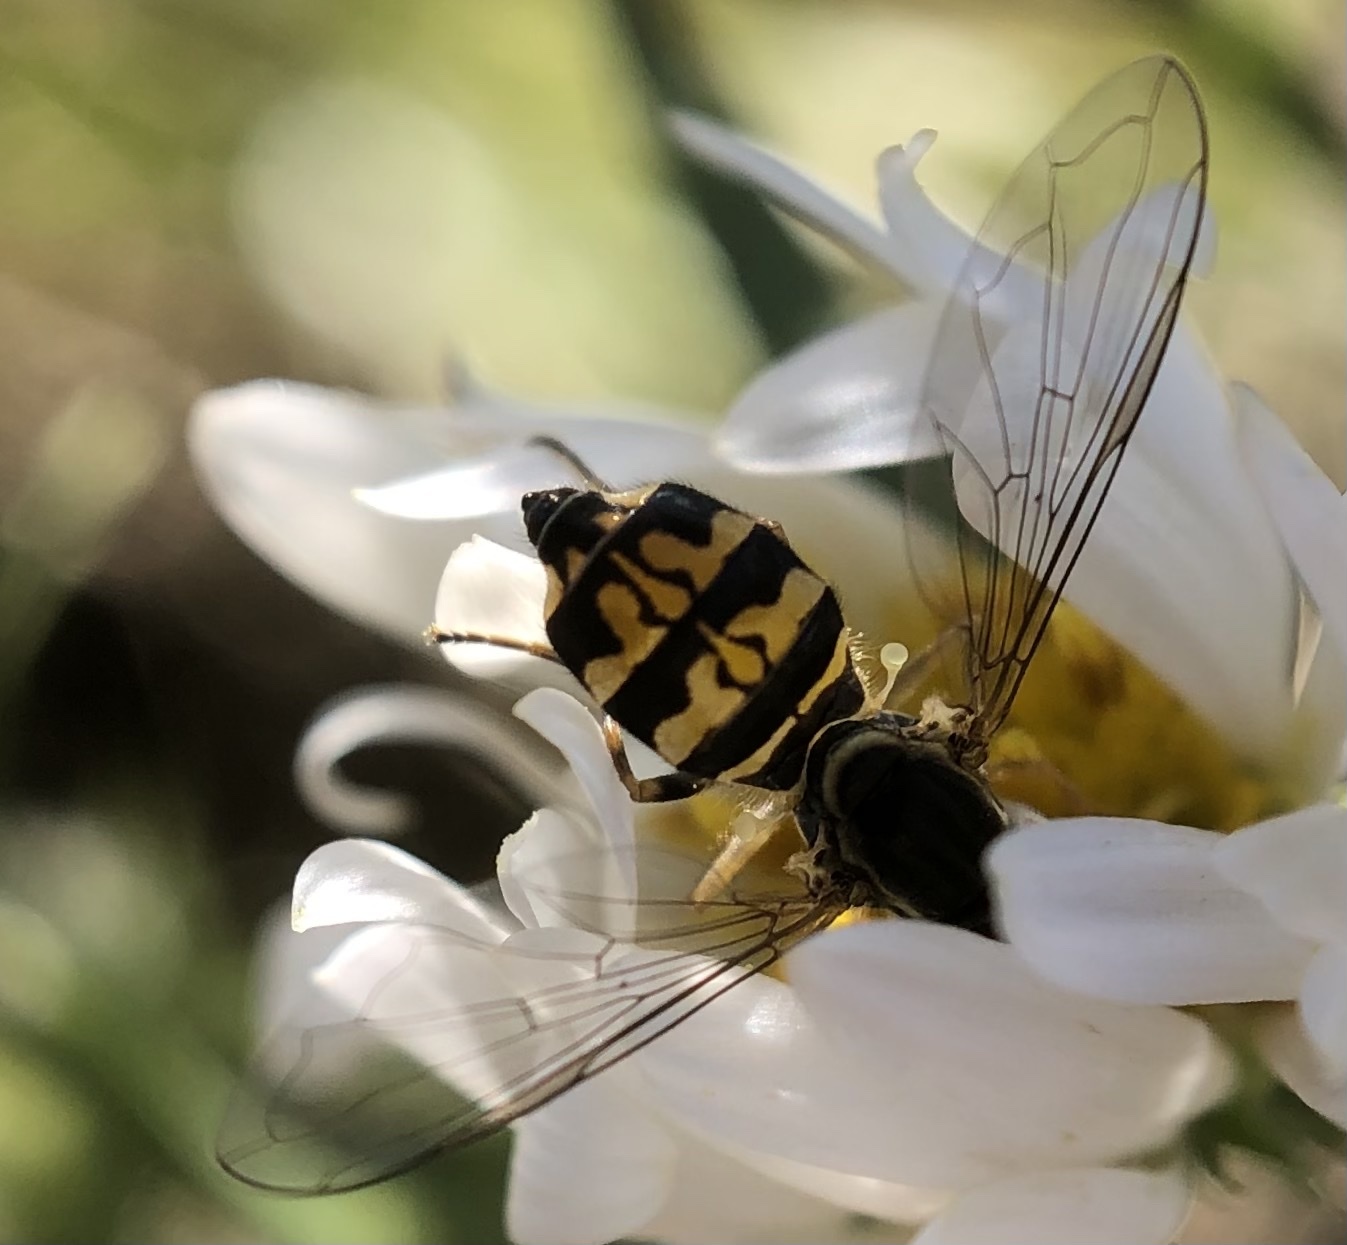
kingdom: Animalia
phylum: Arthropoda
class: Insecta
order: Diptera
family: Syrphidae
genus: Toxomerus
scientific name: Toxomerus geminatus
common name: Eastern calligrapher
